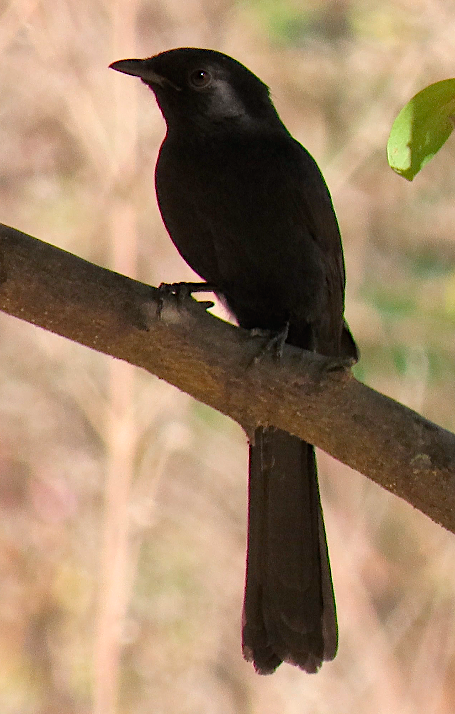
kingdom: Animalia
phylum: Chordata
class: Aves
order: Passeriformes
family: Muscicapidae
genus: Melaenornis
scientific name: Melaenornis edolioides
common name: Northern black flycatcher
